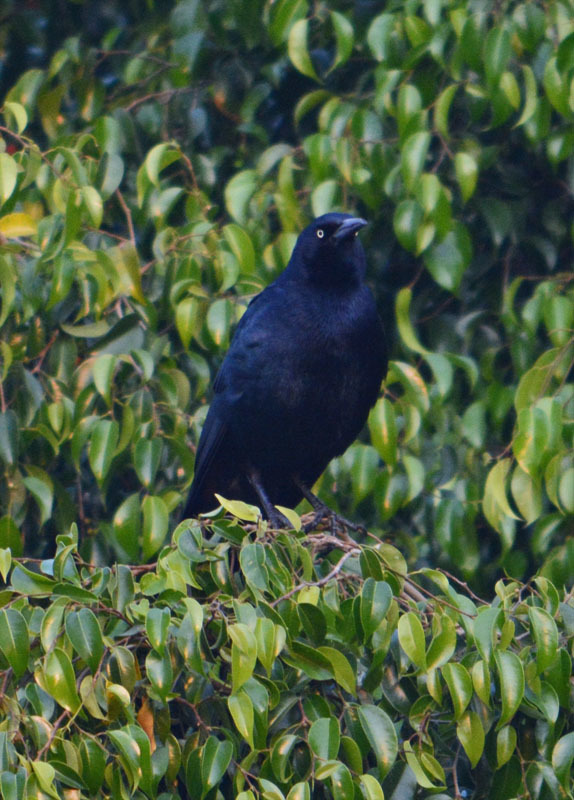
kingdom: Animalia
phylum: Chordata
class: Aves
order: Passeriformes
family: Icteridae
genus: Quiscalus
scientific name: Quiscalus mexicanus
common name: Great-tailed grackle
